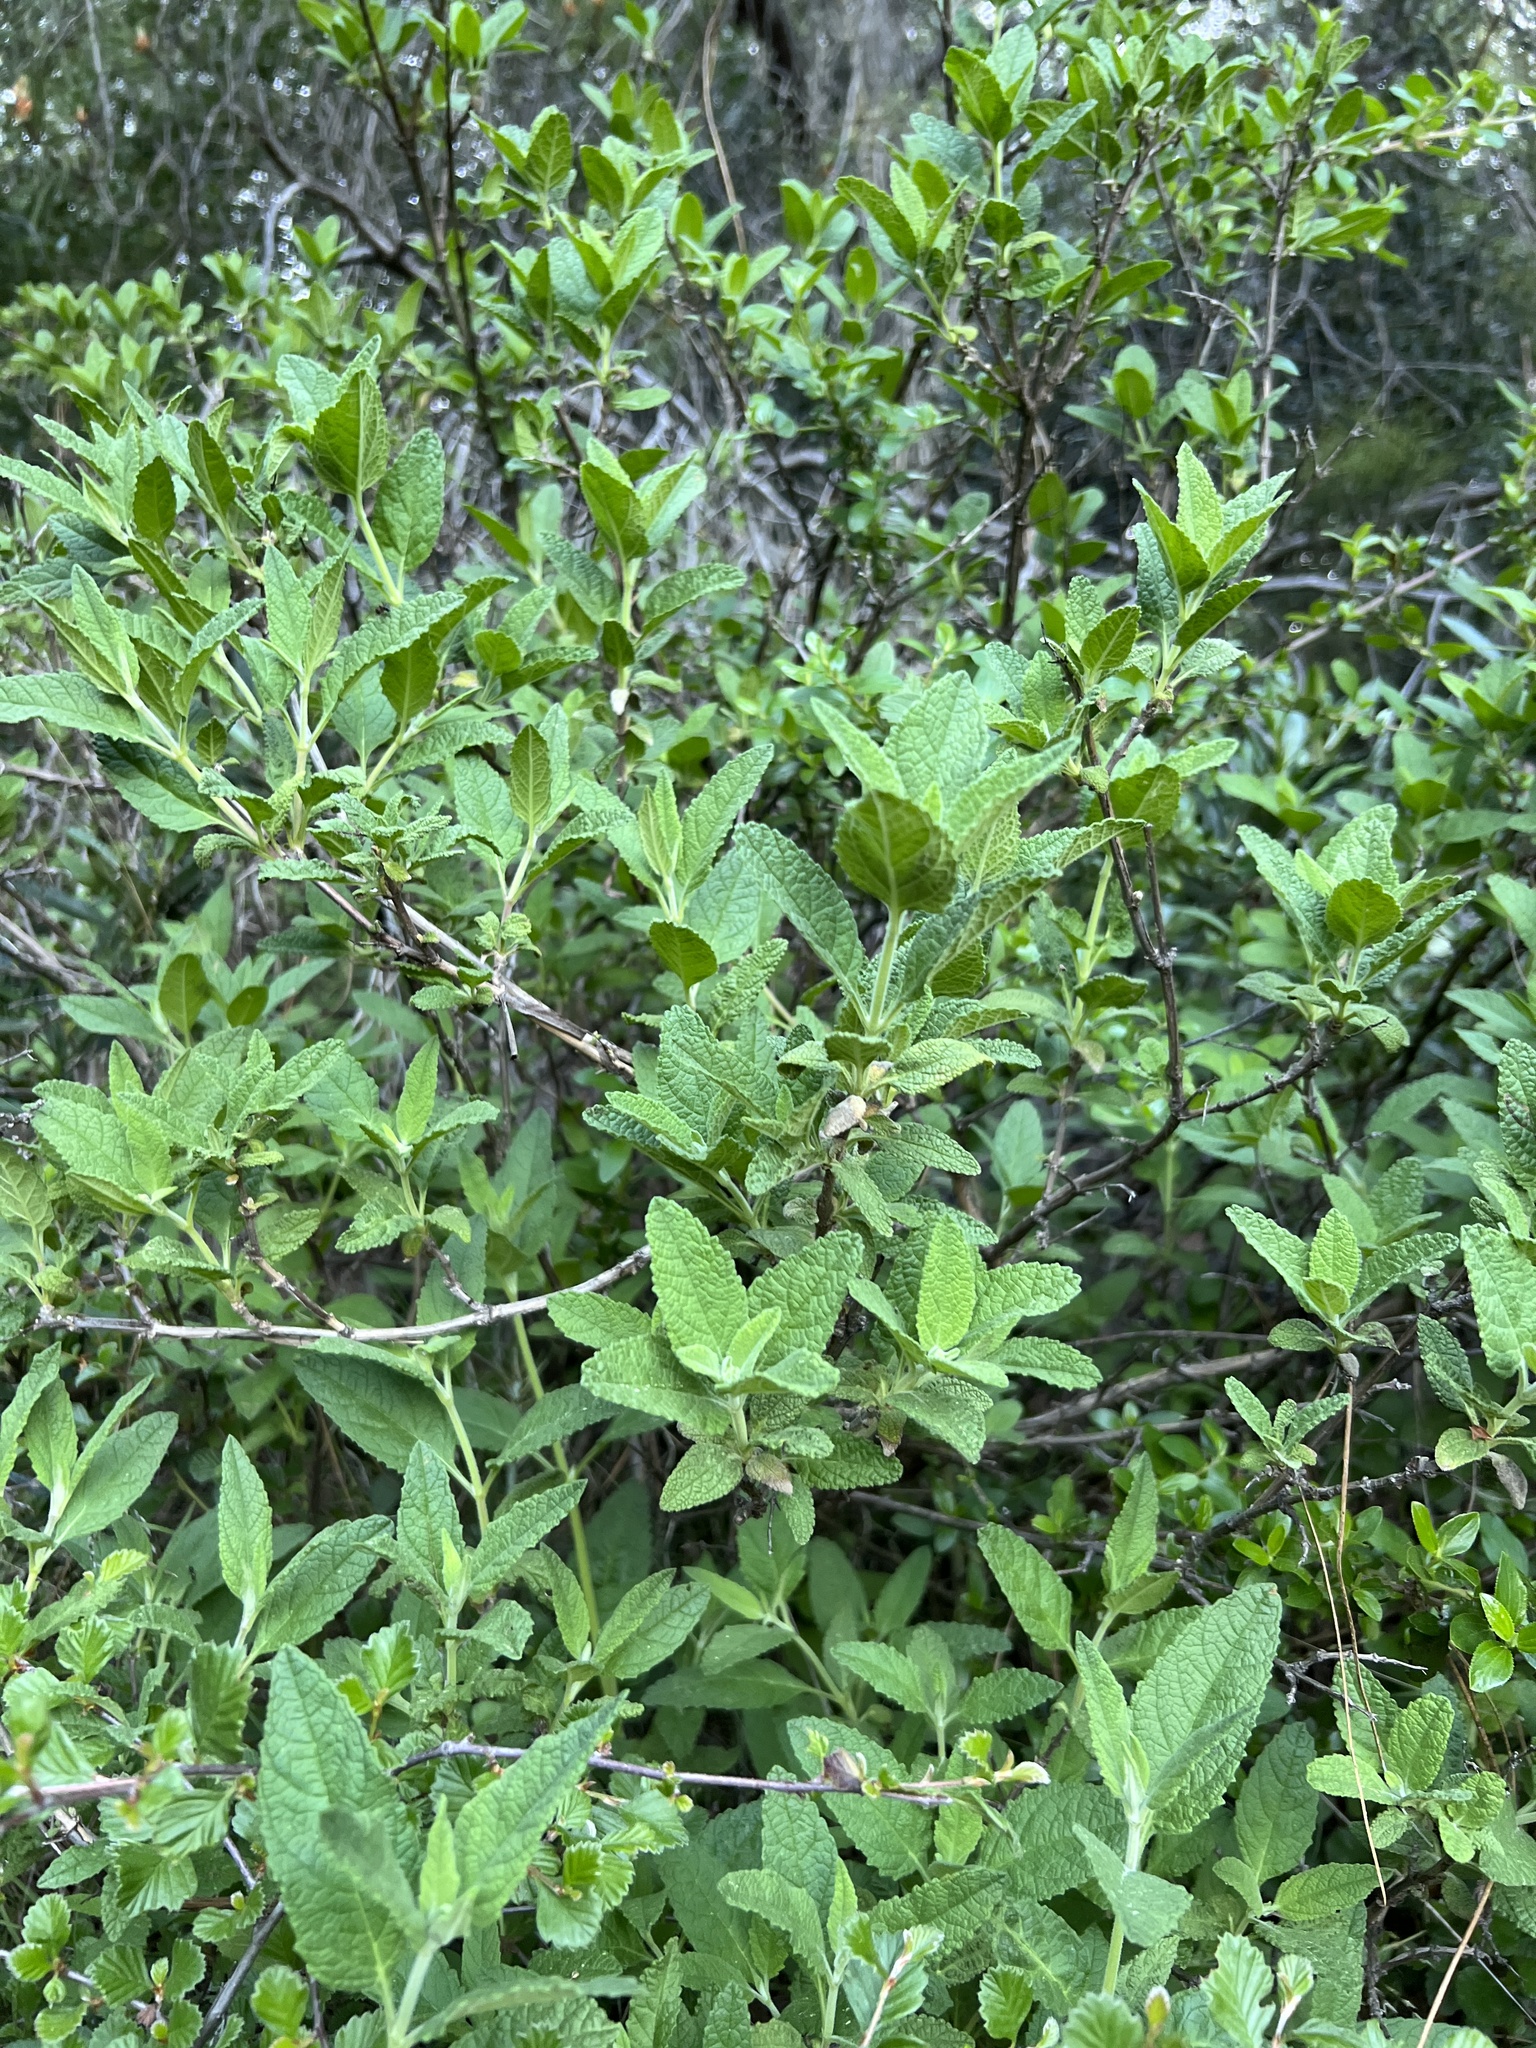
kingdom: Plantae
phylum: Tracheophyta
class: Magnoliopsida
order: Lamiales
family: Lamiaceae
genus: Lepechinia
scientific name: Lepechinia calycina
